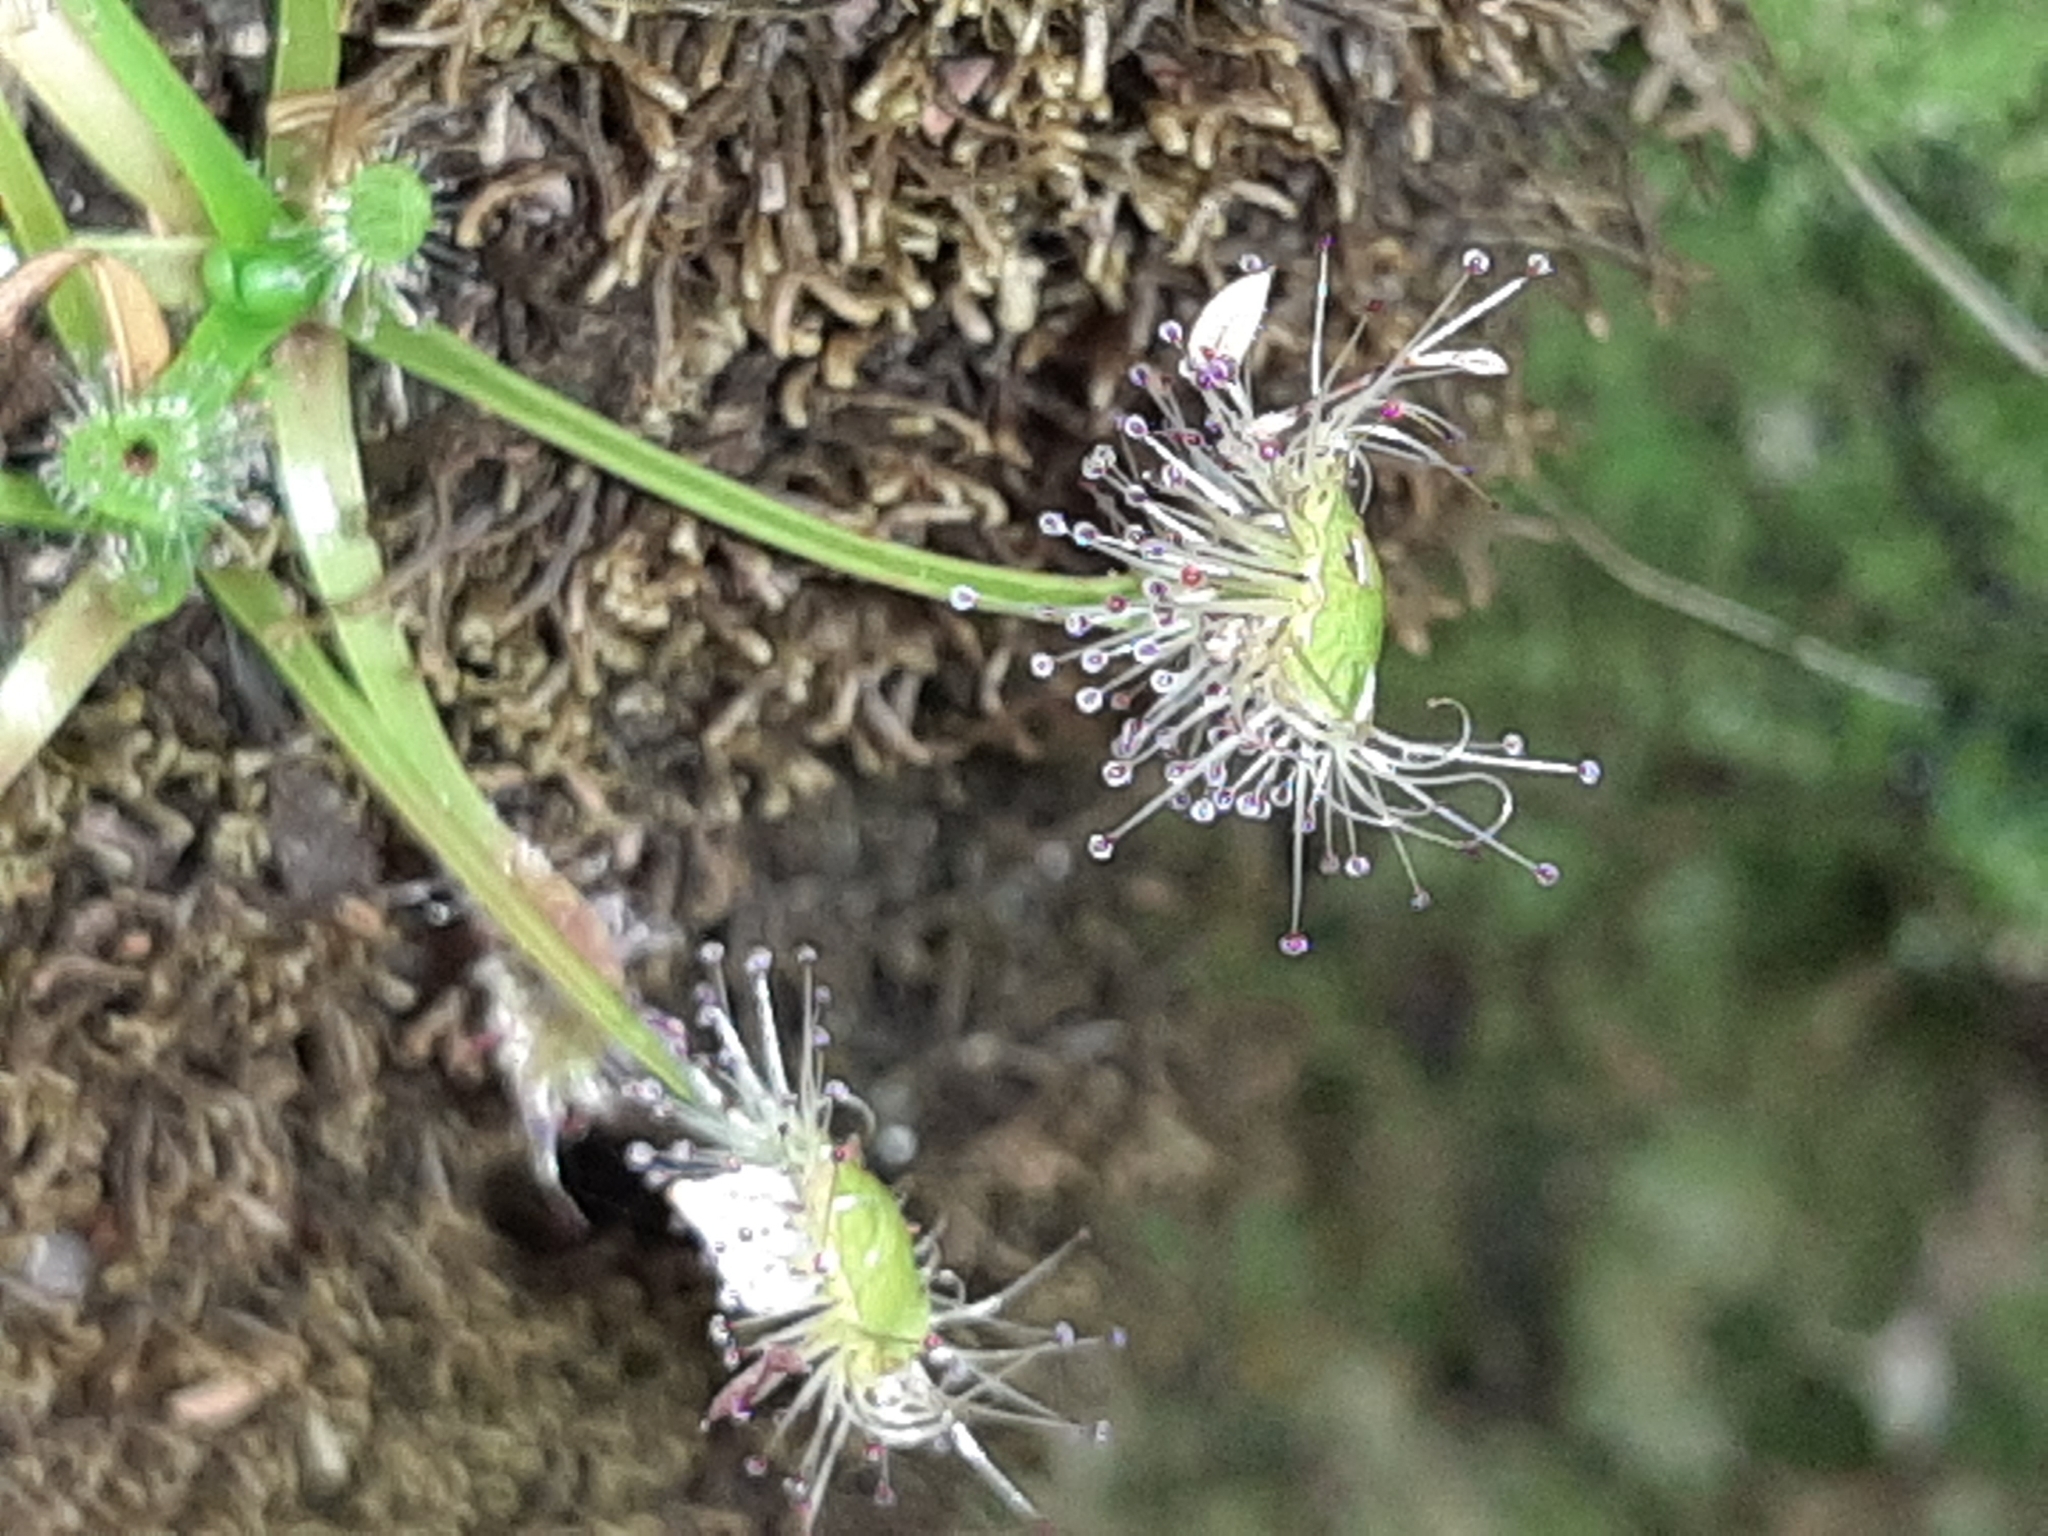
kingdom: Plantae
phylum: Tracheophyta
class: Magnoliopsida
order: Caryophyllales
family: Droseraceae
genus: Drosera
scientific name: Drosera stenopetala
